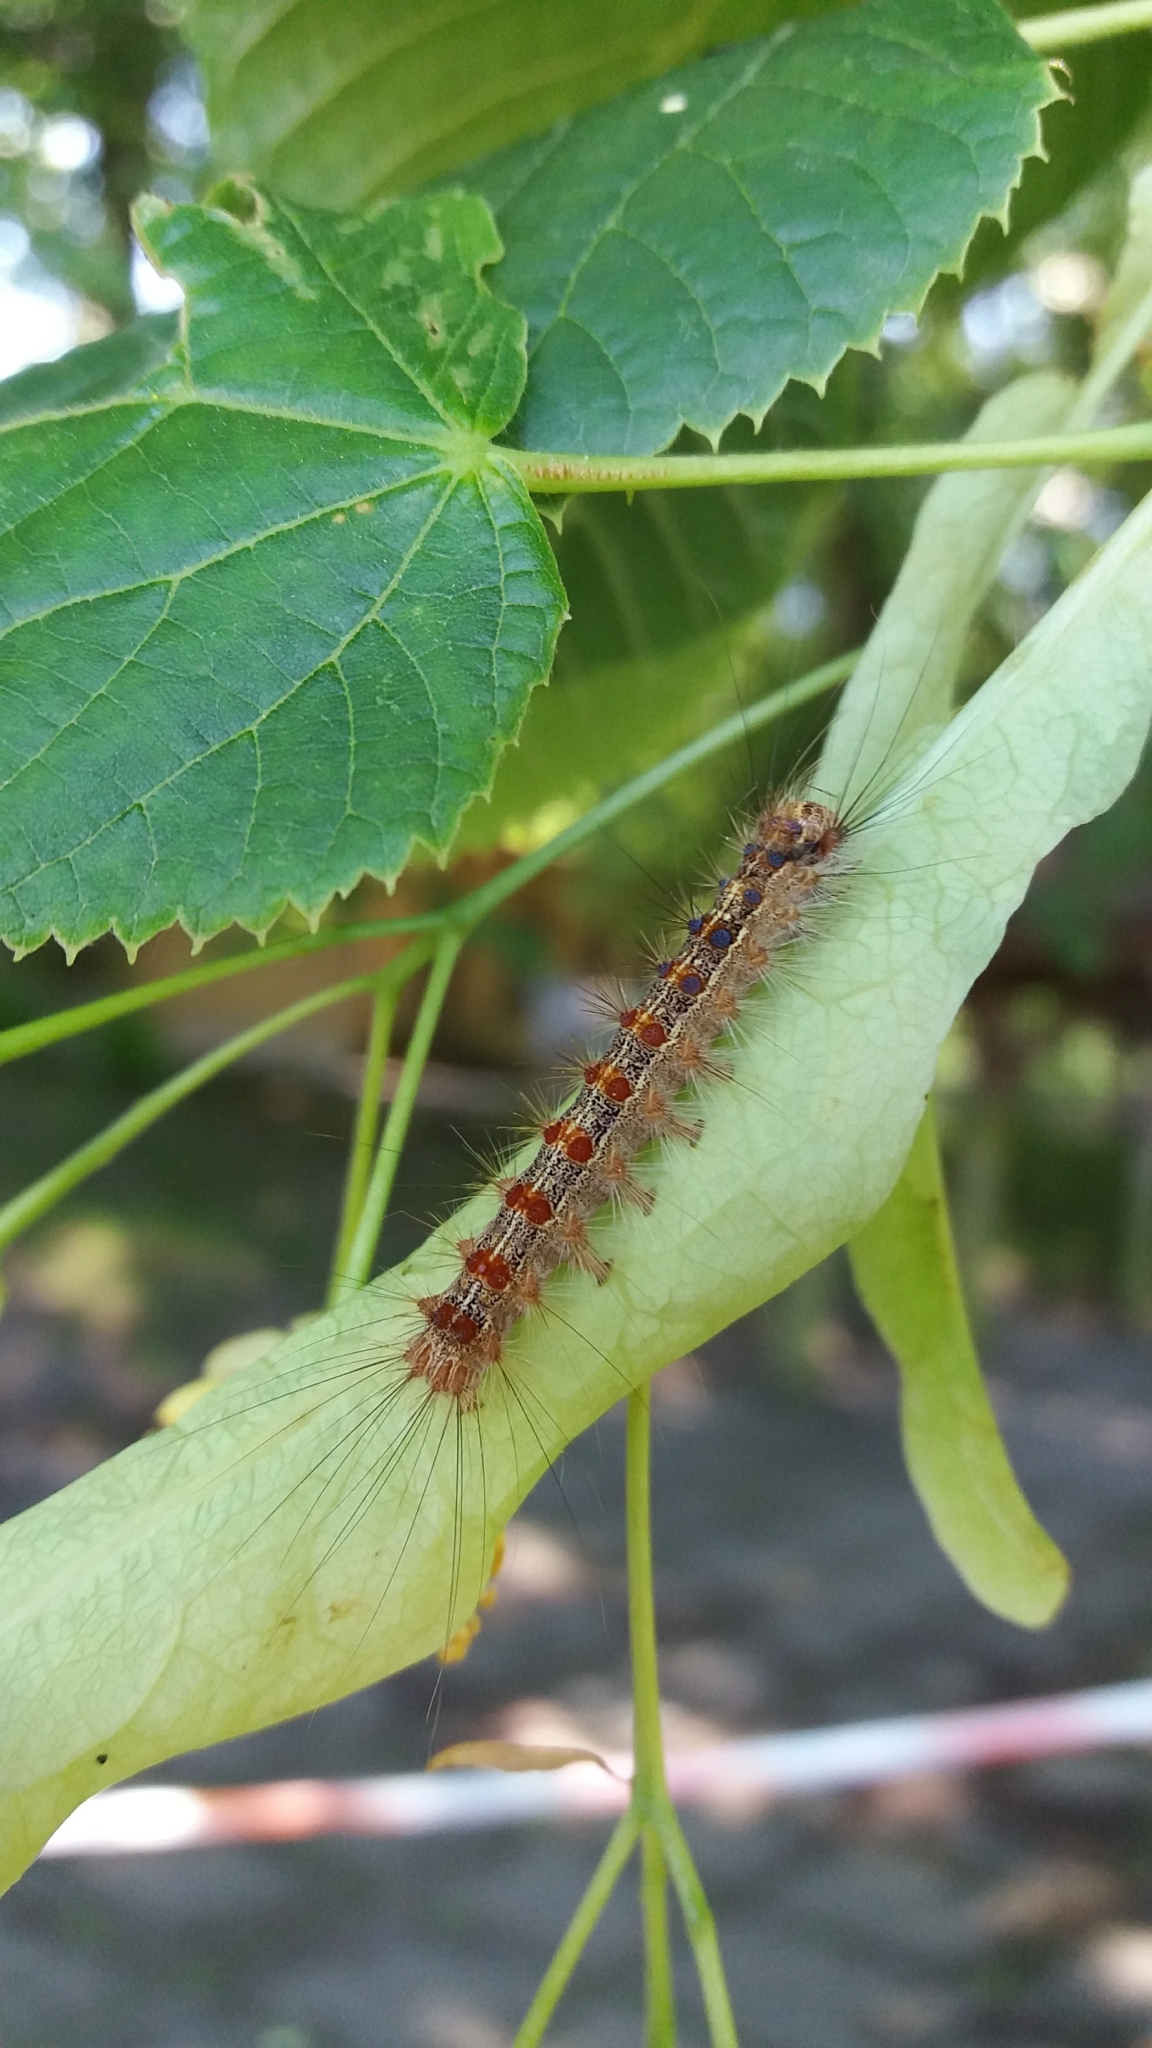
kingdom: Animalia
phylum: Arthropoda
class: Insecta
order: Lepidoptera
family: Erebidae
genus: Lymantria
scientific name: Lymantria dispar
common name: Gypsy moth
